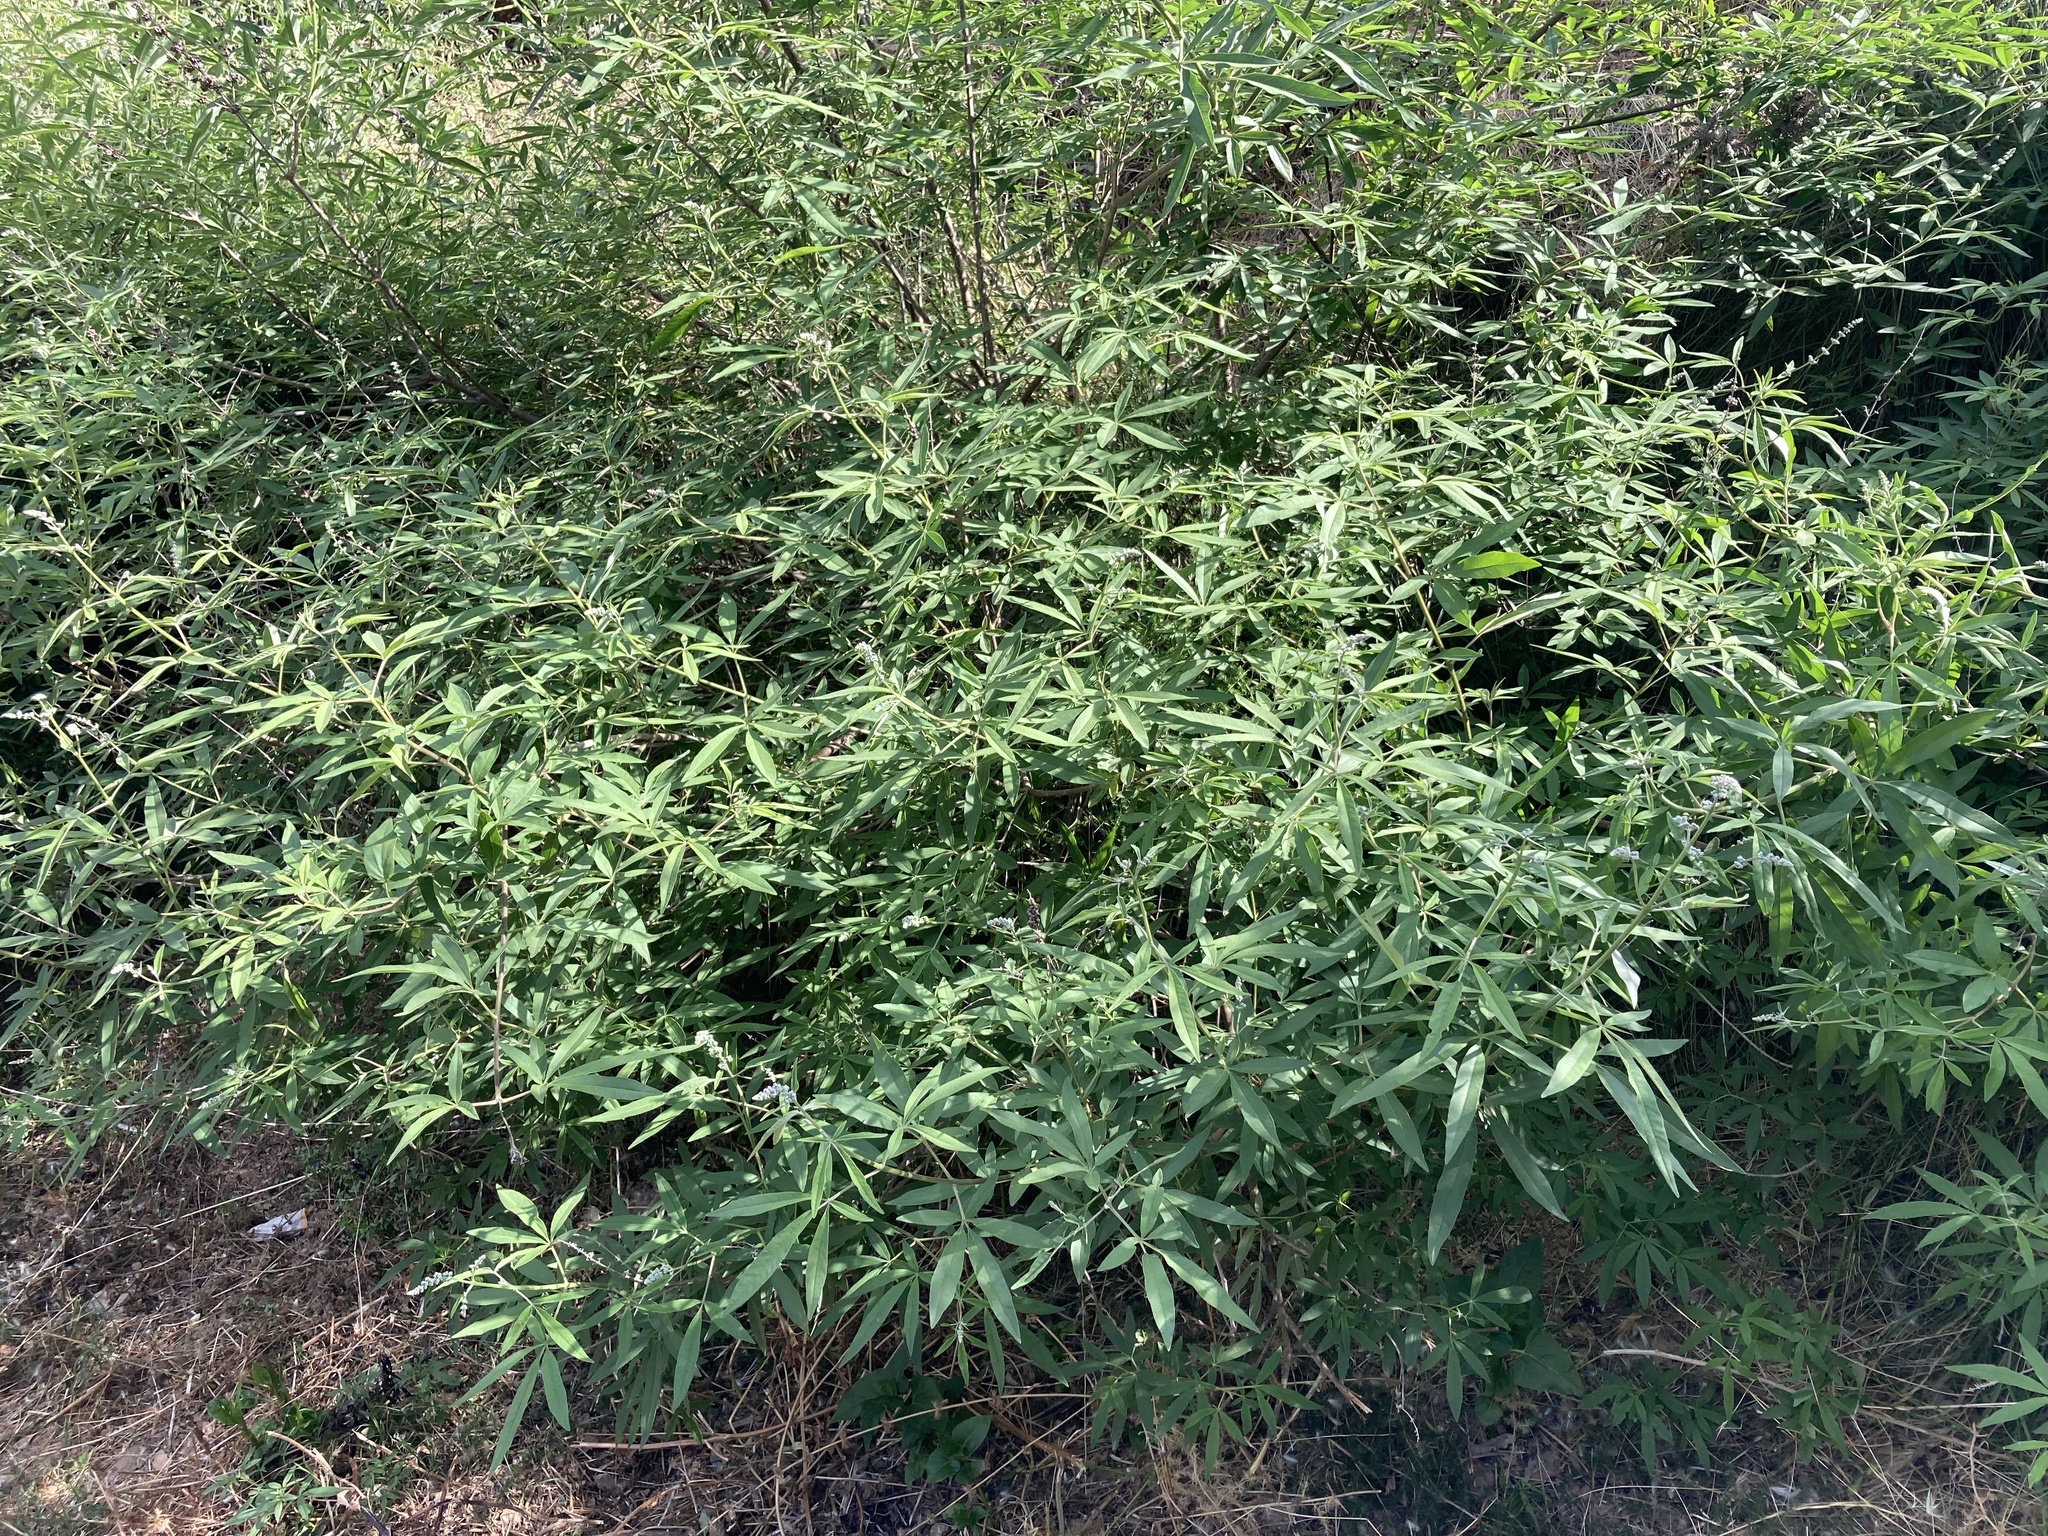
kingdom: Plantae
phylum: Tracheophyta
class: Magnoliopsida
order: Lamiales
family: Lamiaceae
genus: Vitex
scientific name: Vitex agnus-castus
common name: Chasteberry
